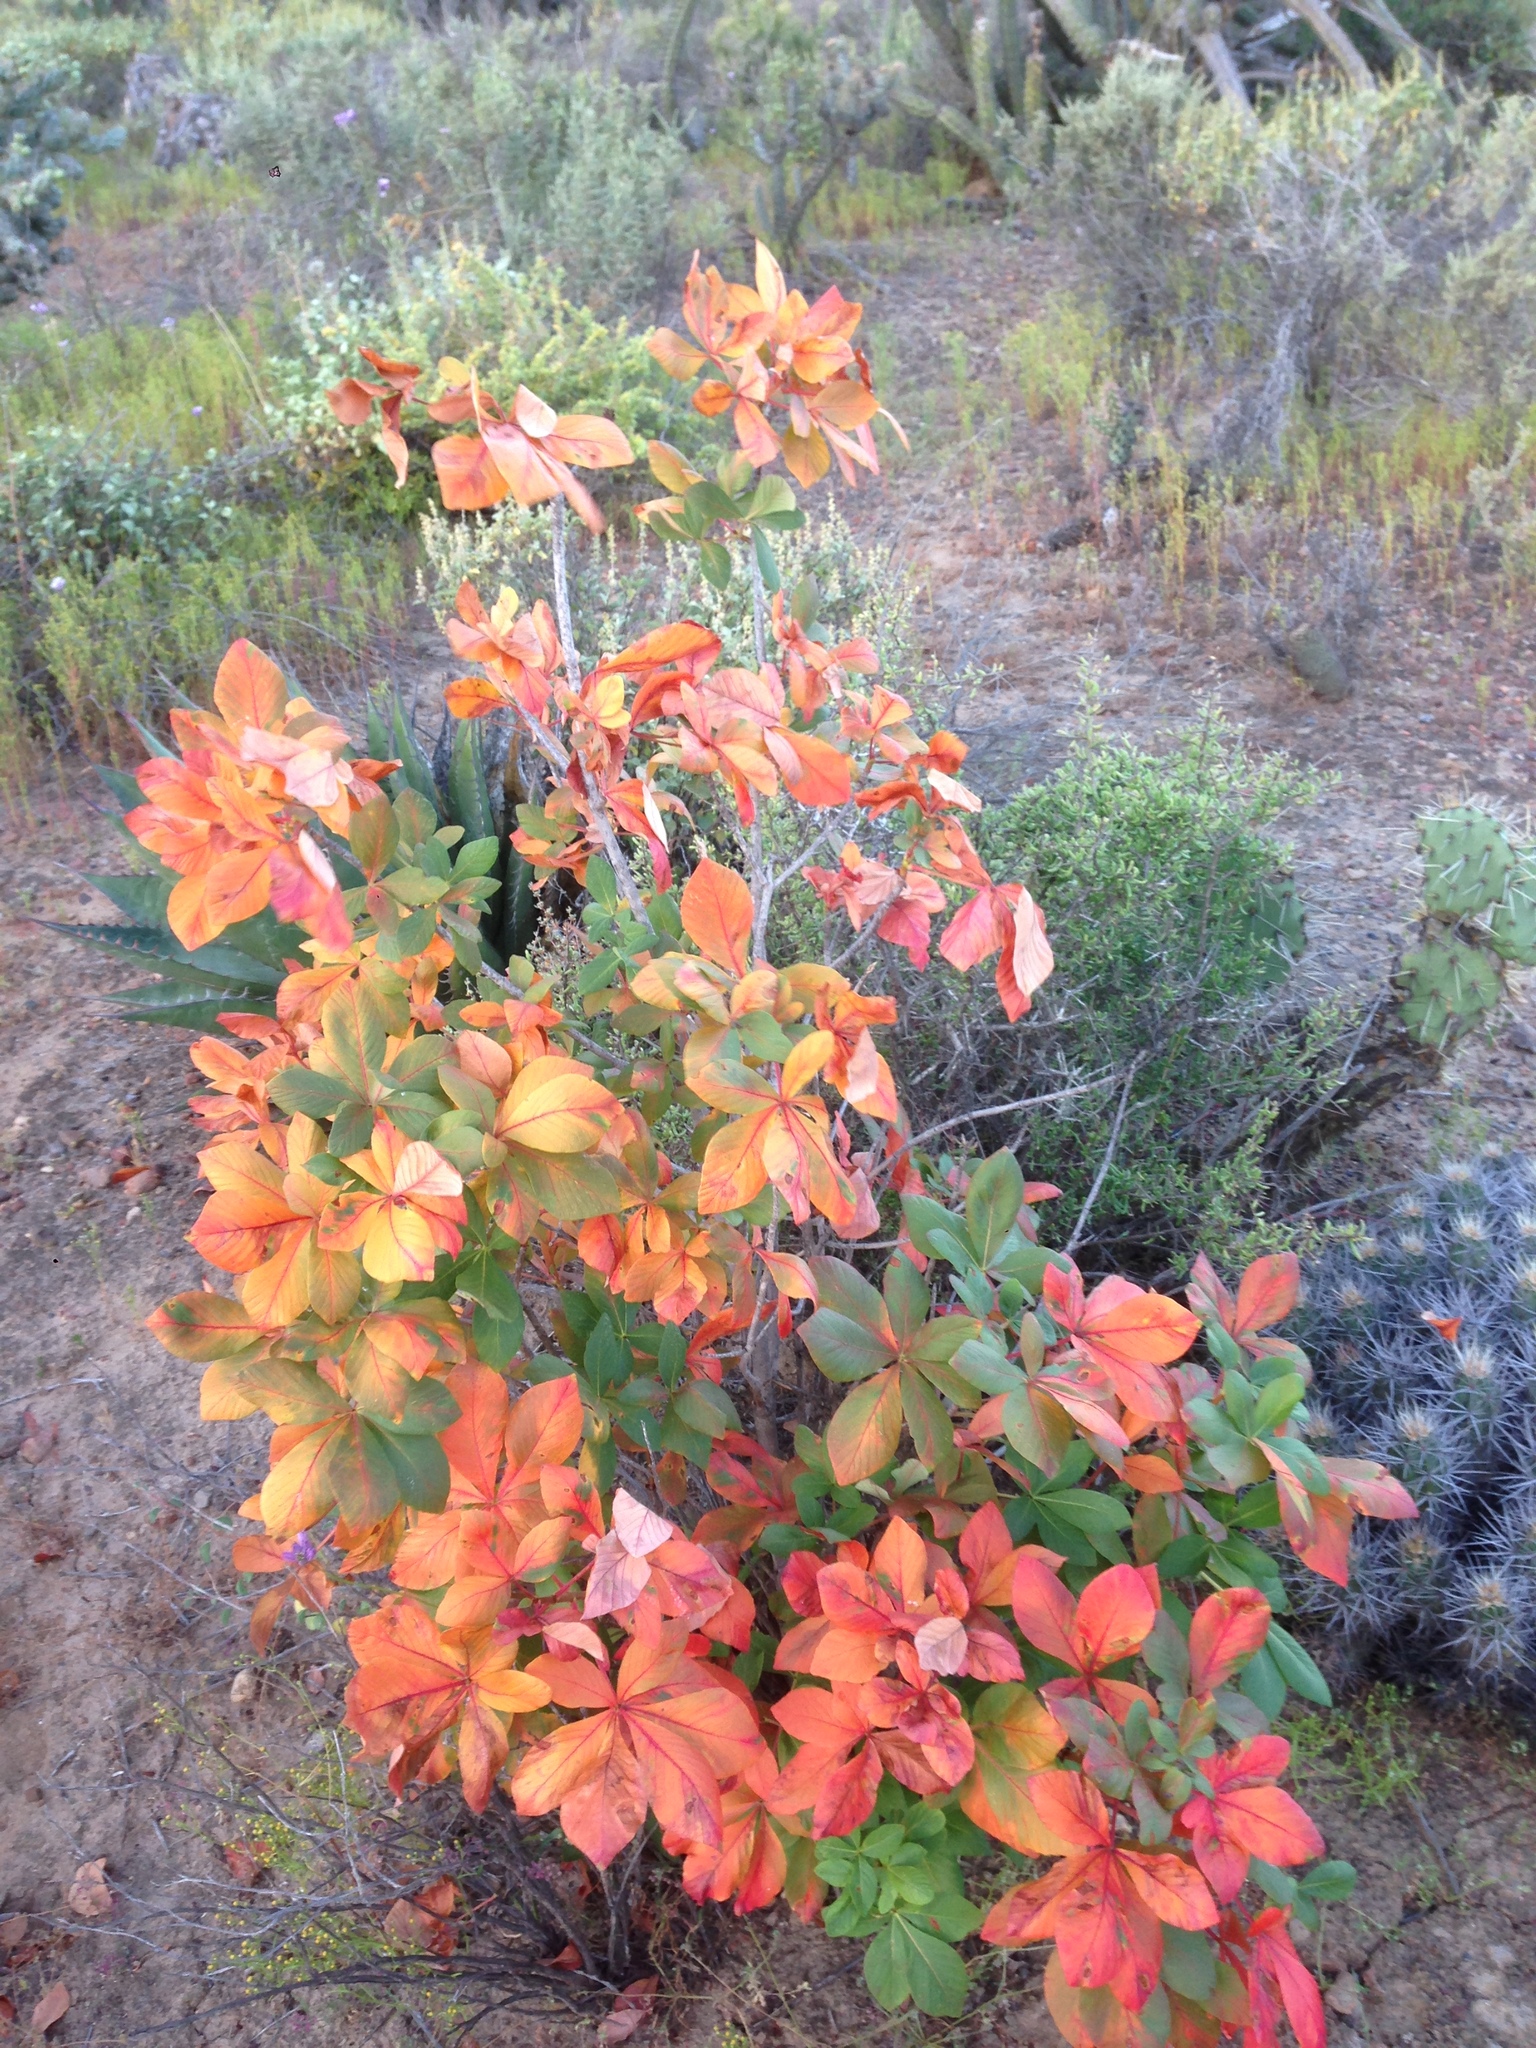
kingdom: Plantae
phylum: Tracheophyta
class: Magnoliopsida
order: Sapindales
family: Sapindaceae
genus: Aesculus
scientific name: Aesculus parryi
